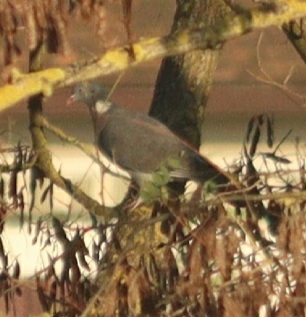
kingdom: Animalia
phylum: Chordata
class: Aves
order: Columbiformes
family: Columbidae
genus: Columba
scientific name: Columba palumbus
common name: Common wood pigeon
